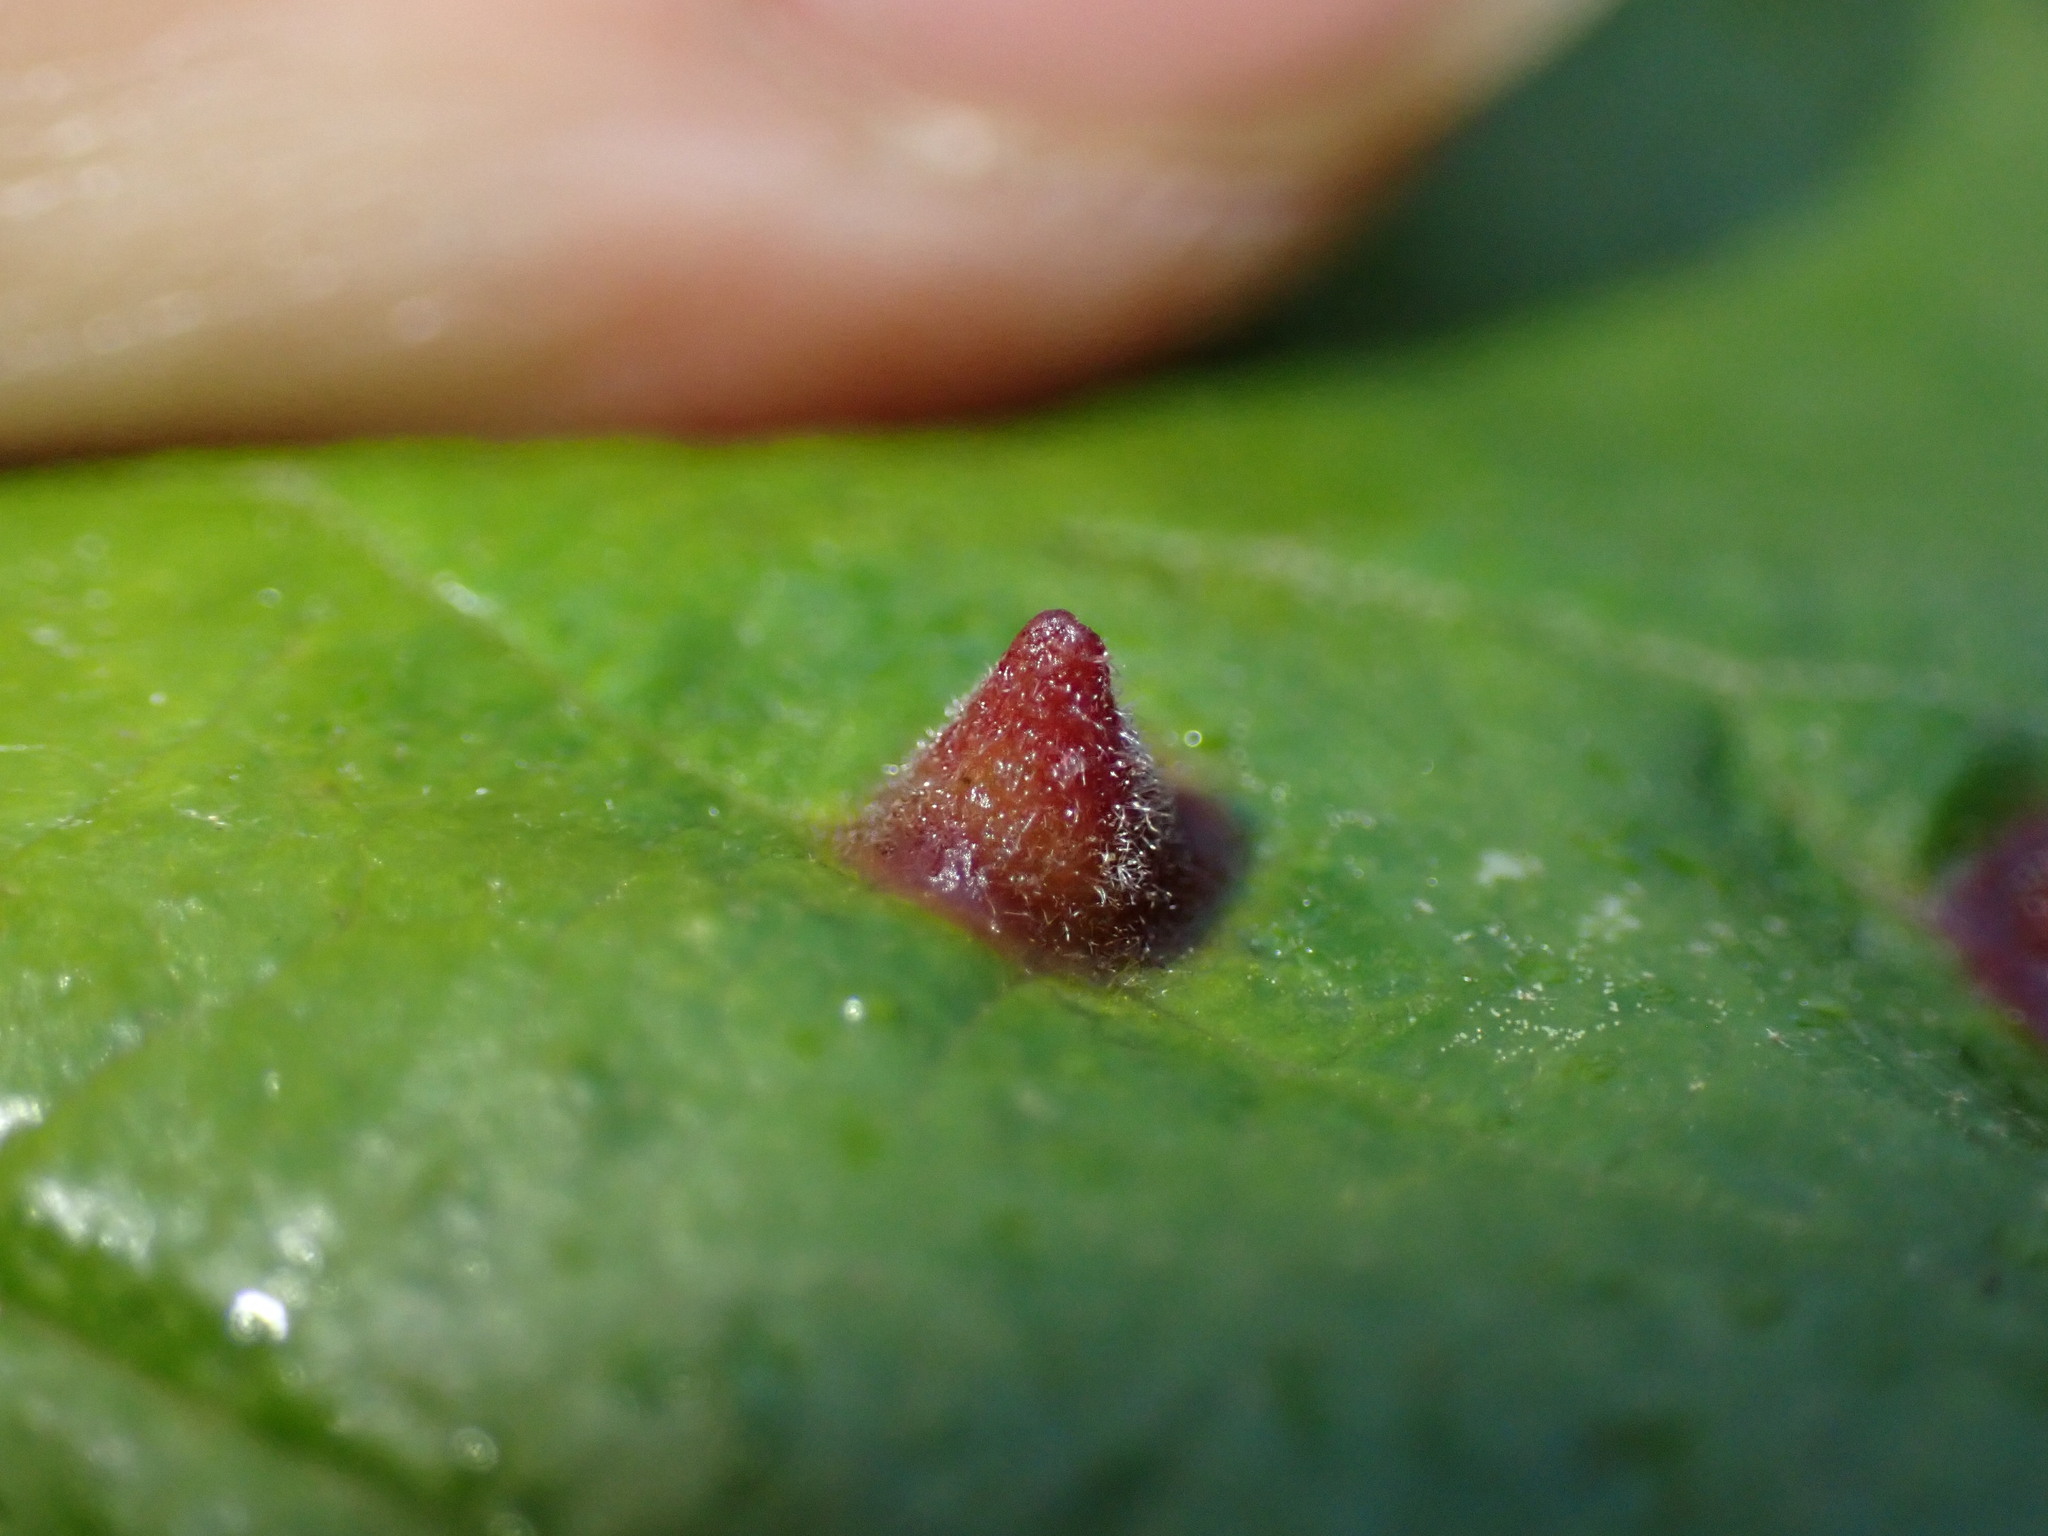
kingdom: Animalia
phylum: Arthropoda
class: Insecta
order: Hemiptera
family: Aphididae
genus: Hormaphis
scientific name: Hormaphis hamamelidis
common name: Witch-hazel cone gall aphid
